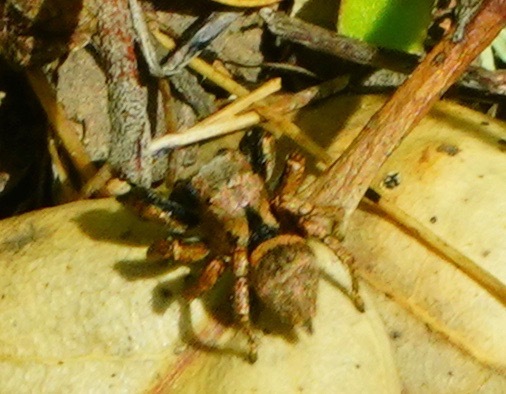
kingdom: Animalia
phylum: Arthropoda
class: Arachnida
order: Araneae
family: Salticidae
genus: Habronattus
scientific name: Habronattus oregonensis
